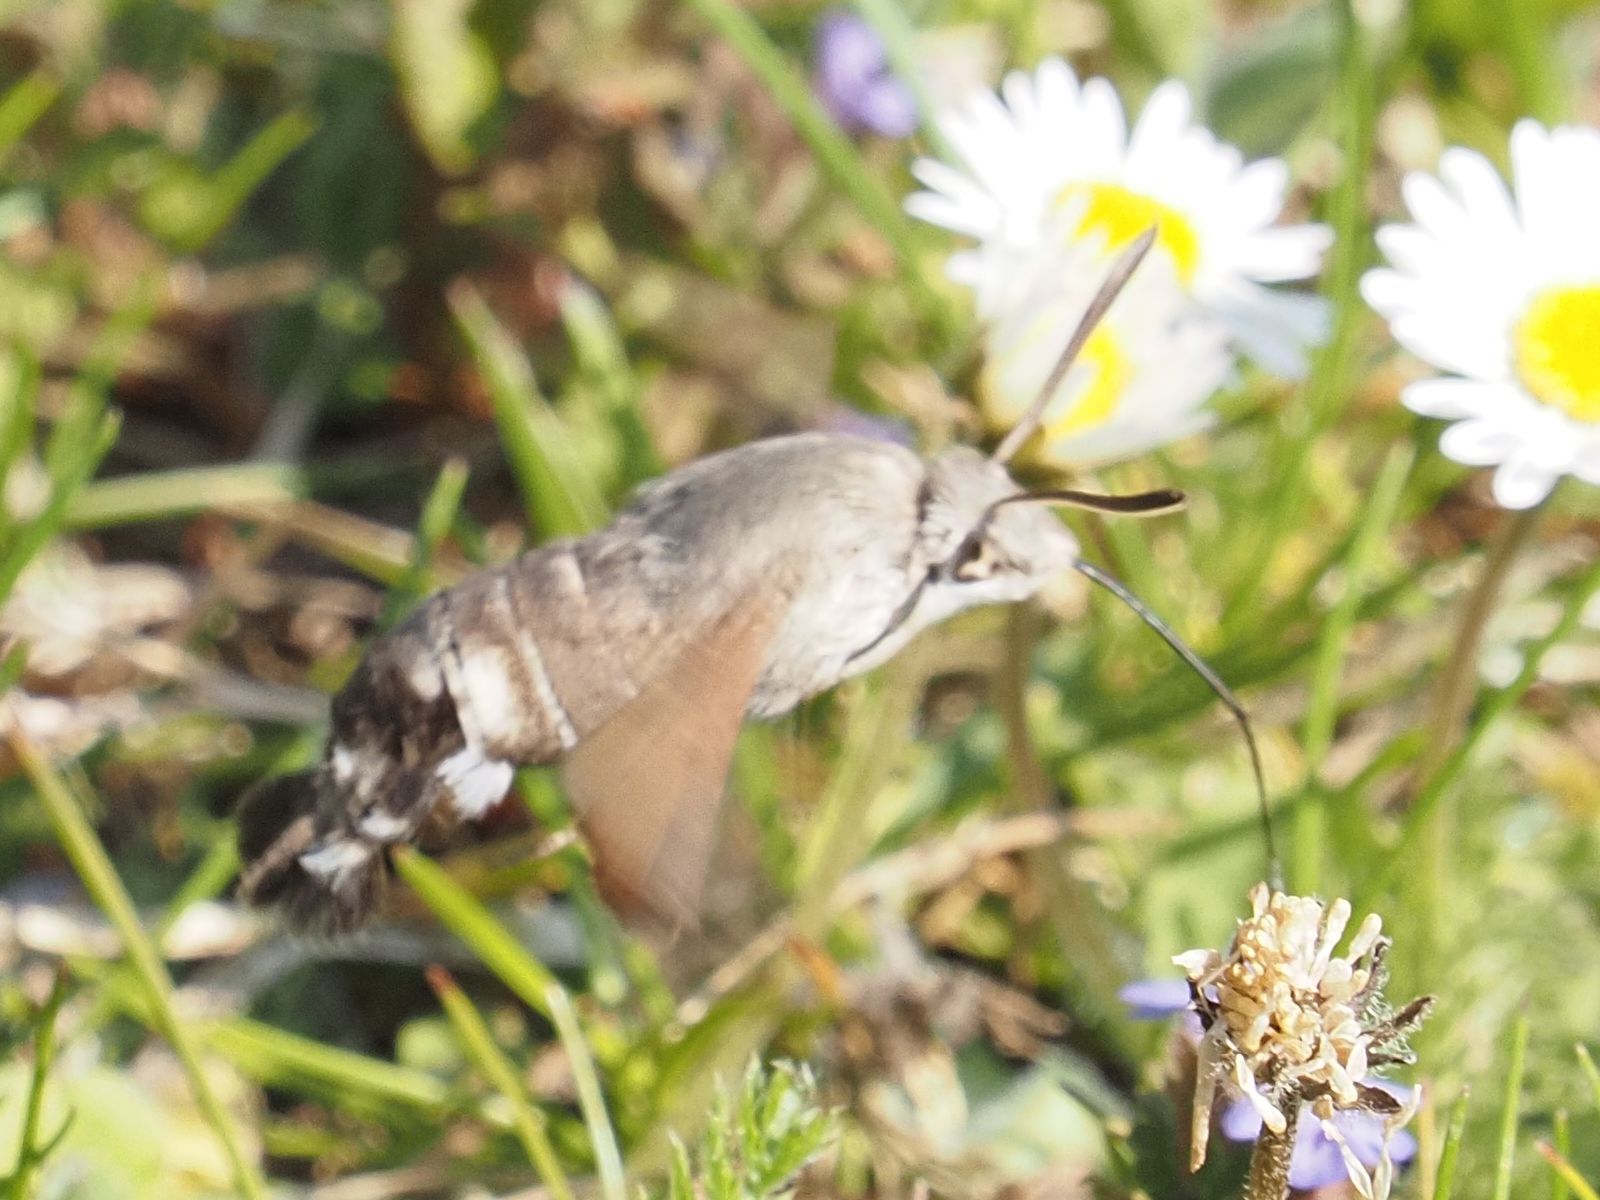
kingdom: Animalia
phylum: Arthropoda
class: Insecta
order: Lepidoptera
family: Sphingidae
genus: Macroglossum
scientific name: Macroglossum stellatarum
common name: Humming-bird hawk-moth
